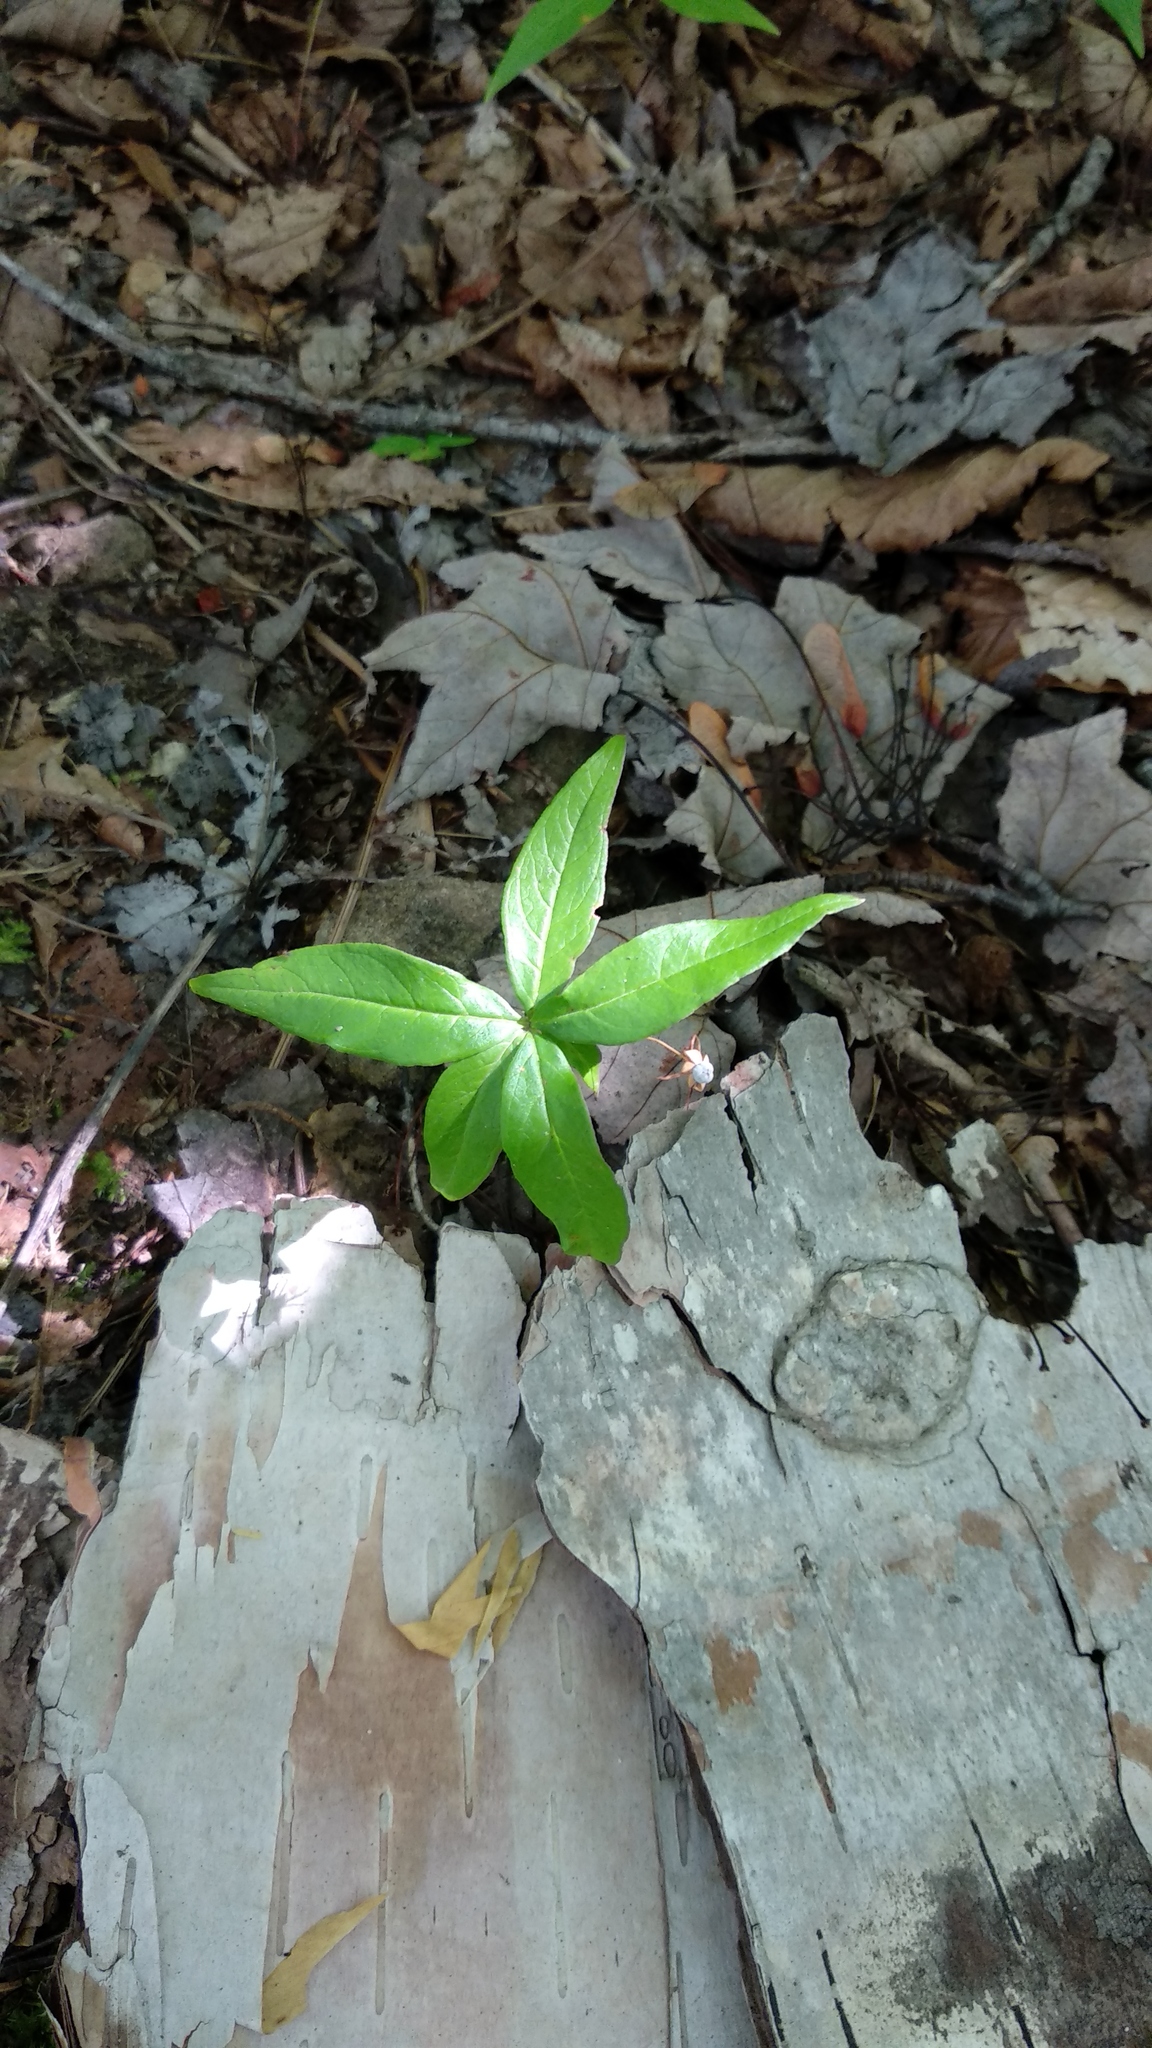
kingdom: Plantae
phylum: Tracheophyta
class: Magnoliopsida
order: Ericales
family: Primulaceae
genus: Lysimachia
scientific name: Lysimachia borealis
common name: American starflower
